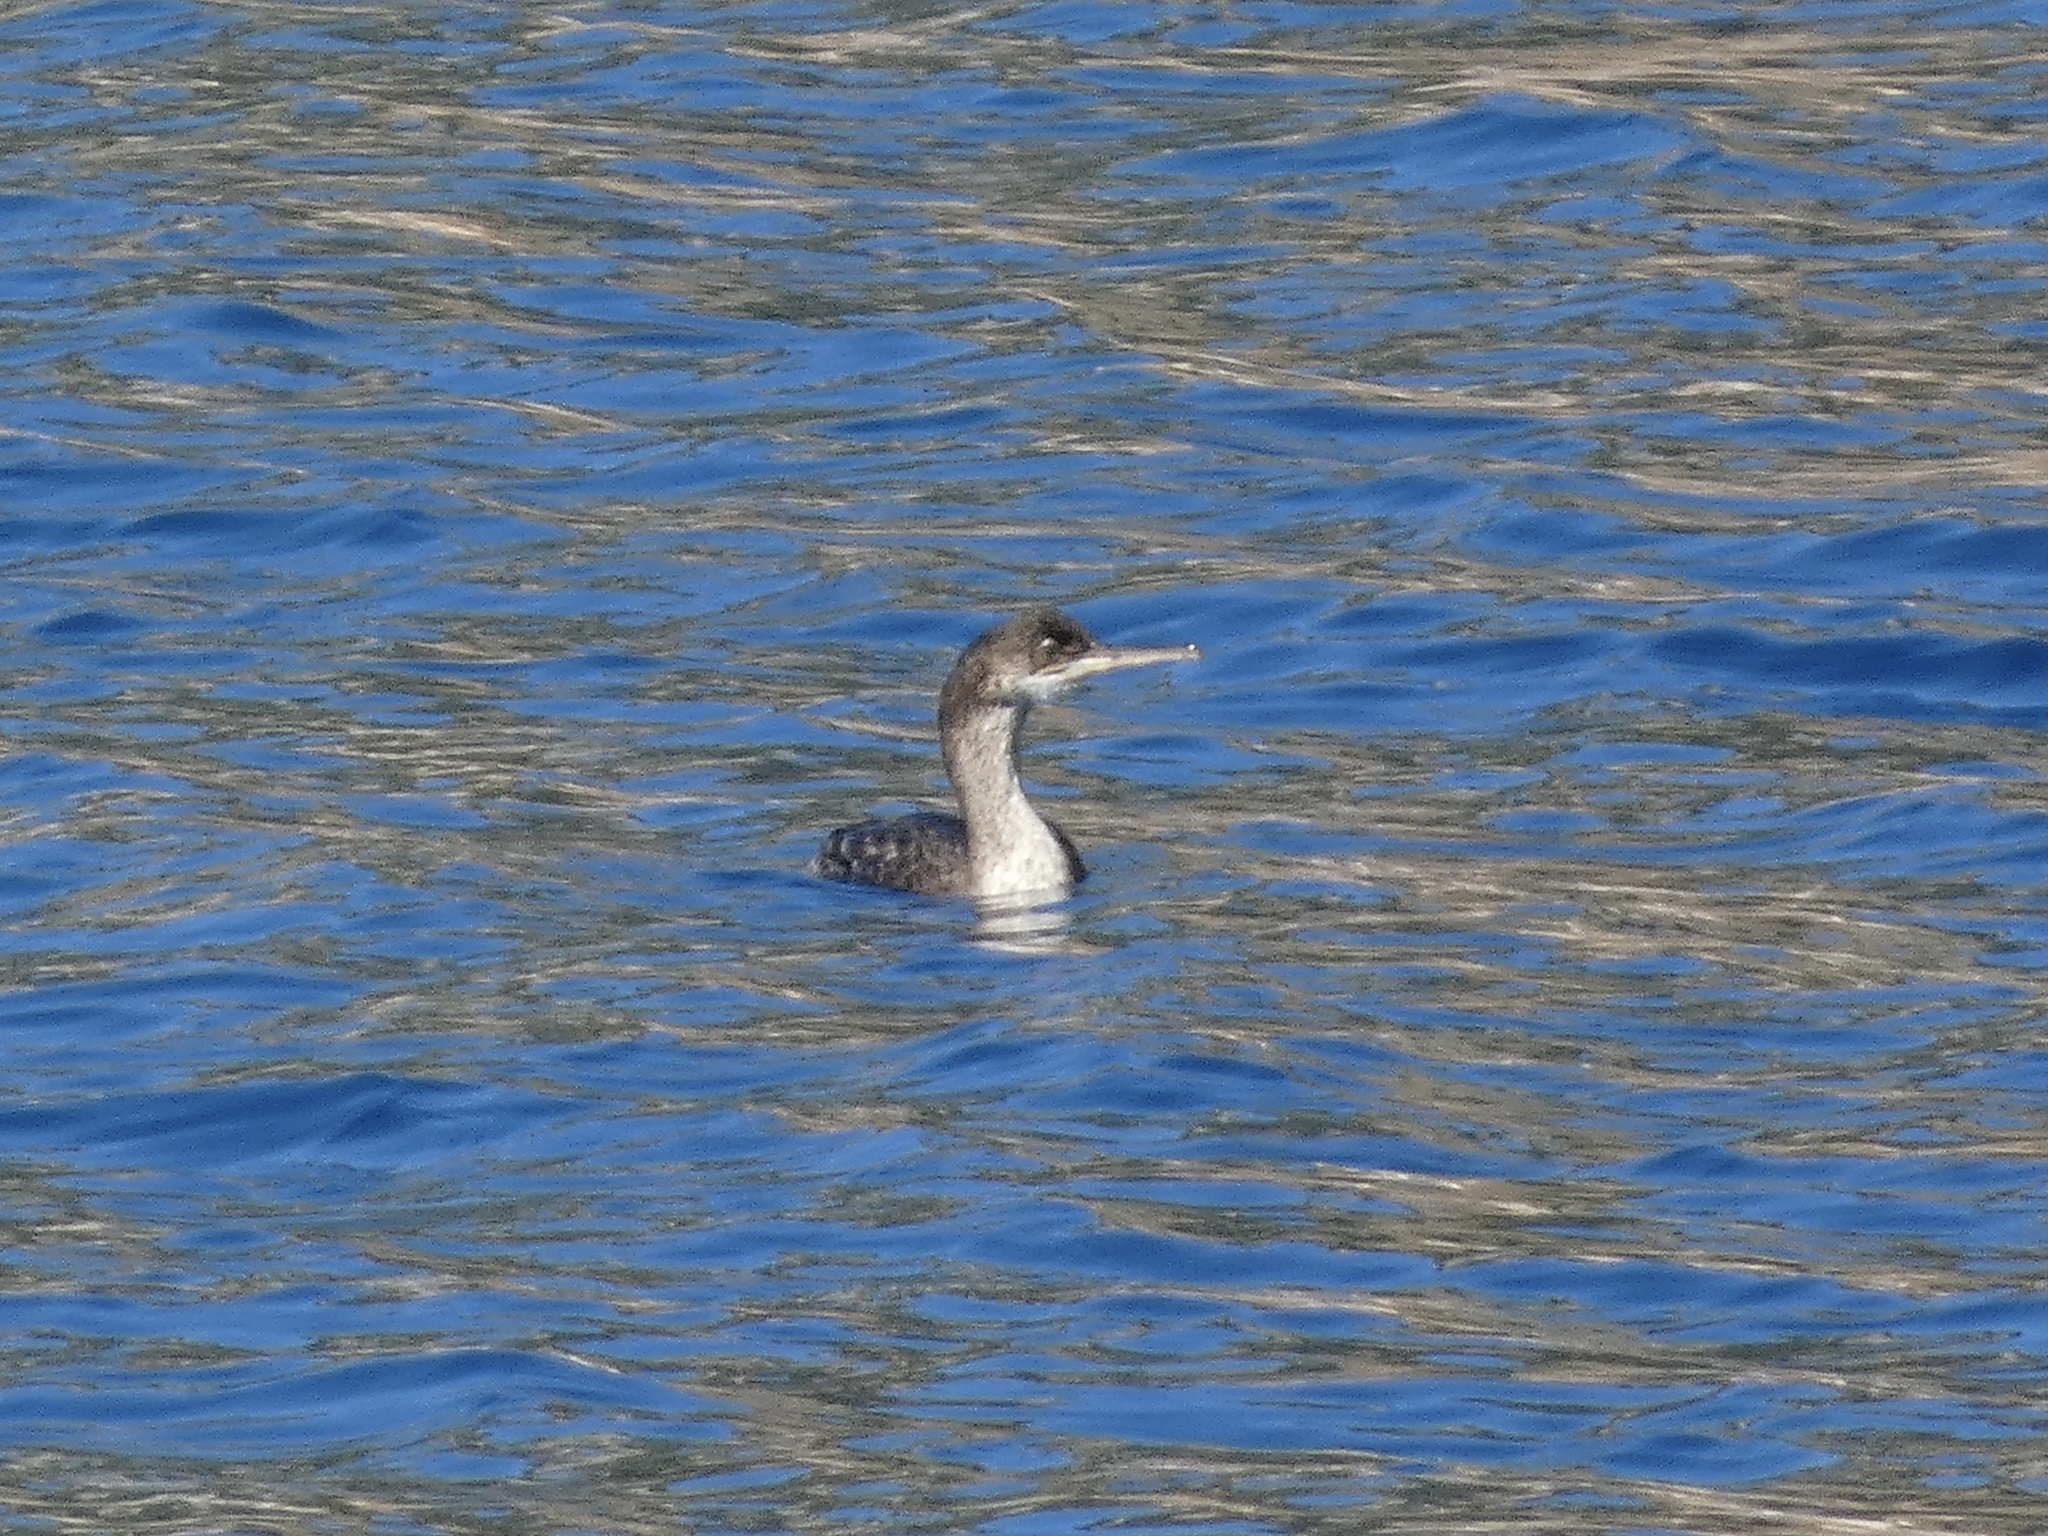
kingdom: Animalia
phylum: Chordata
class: Aves
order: Suliformes
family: Phalacrocoracidae
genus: Phalacrocorax
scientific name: Phalacrocorax aristotelis
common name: European shag
